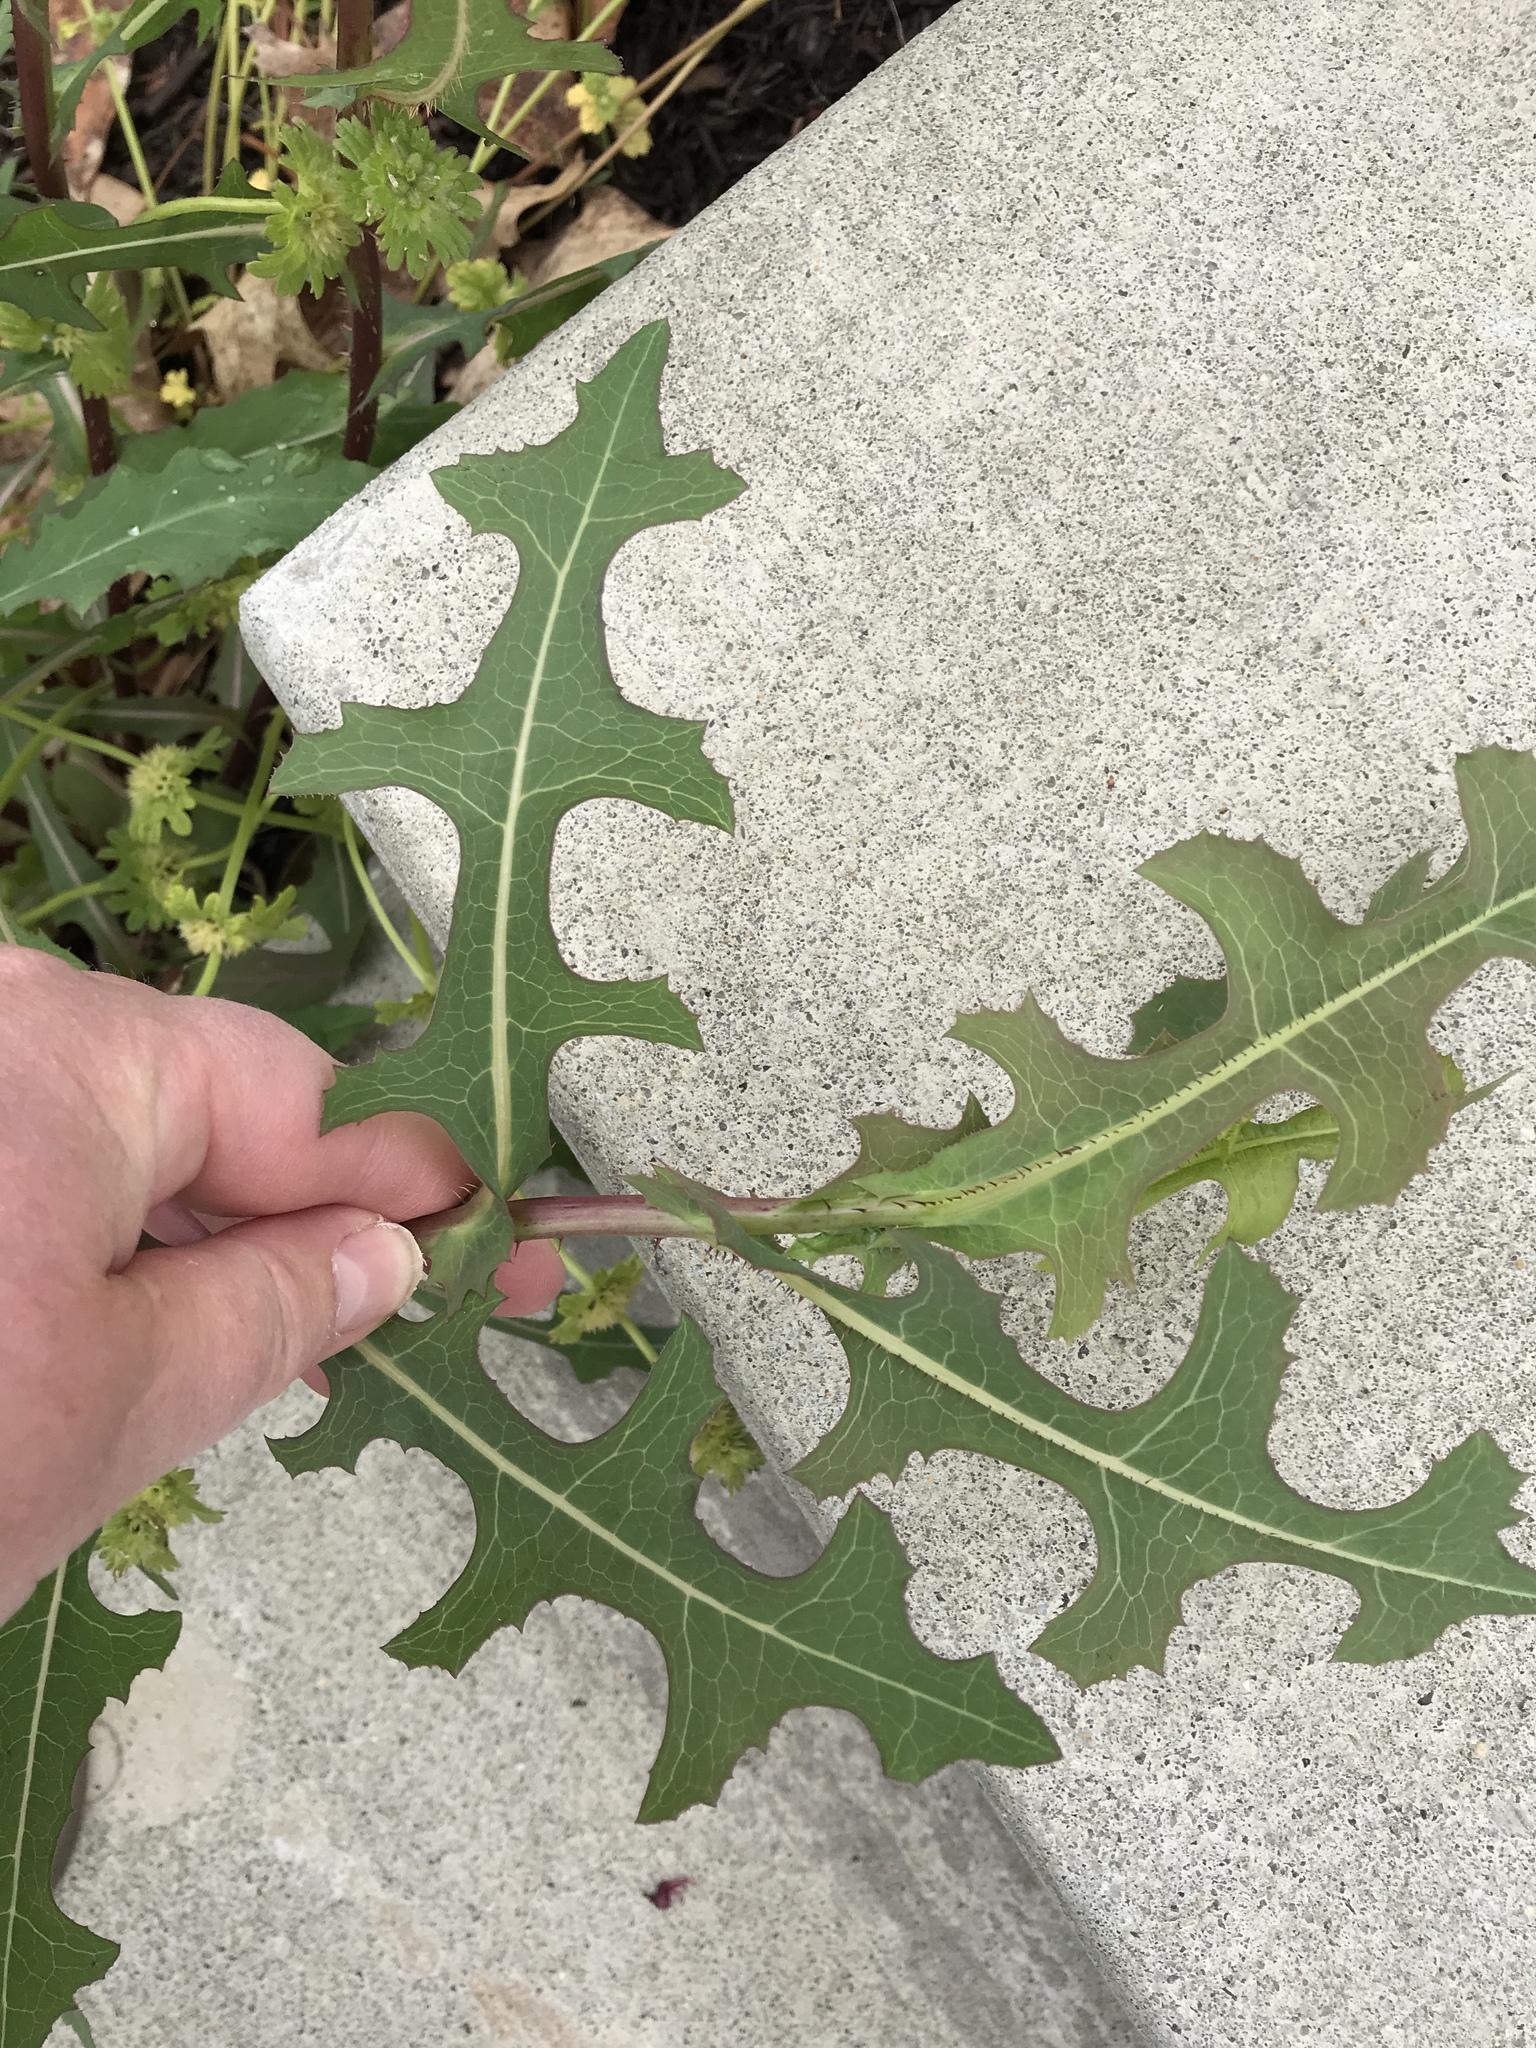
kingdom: Plantae
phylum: Tracheophyta
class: Magnoliopsida
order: Asterales
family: Asteraceae
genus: Lactuca
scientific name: Lactuca serriola
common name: Prickly lettuce
